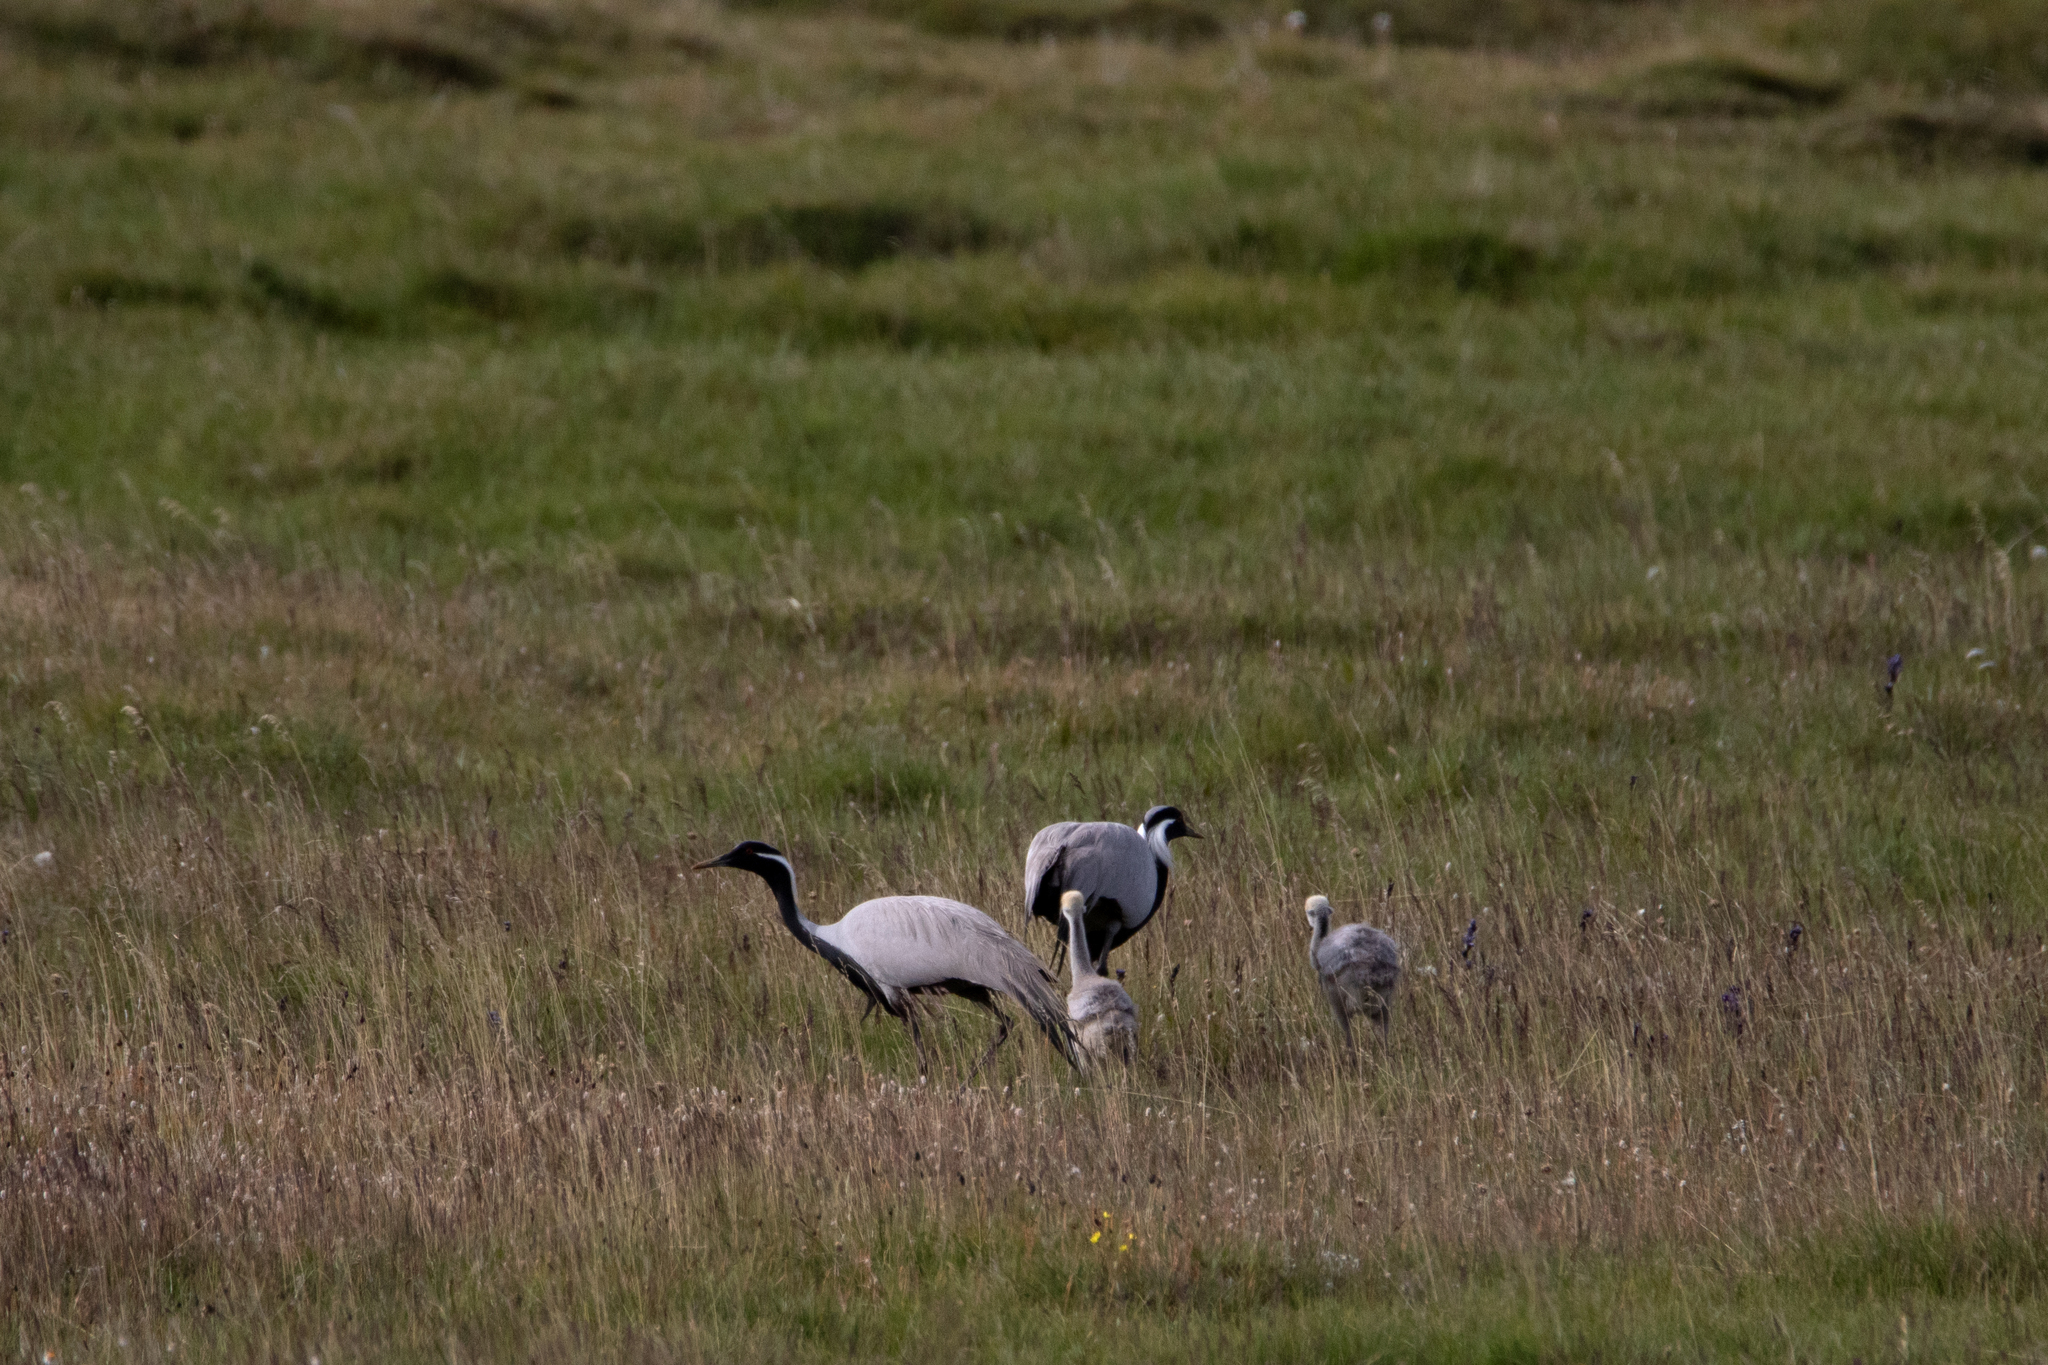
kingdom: Animalia
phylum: Chordata
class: Aves
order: Gruiformes
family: Gruidae
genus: Anthropoides
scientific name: Anthropoides virgo
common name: Demoiselle crane
